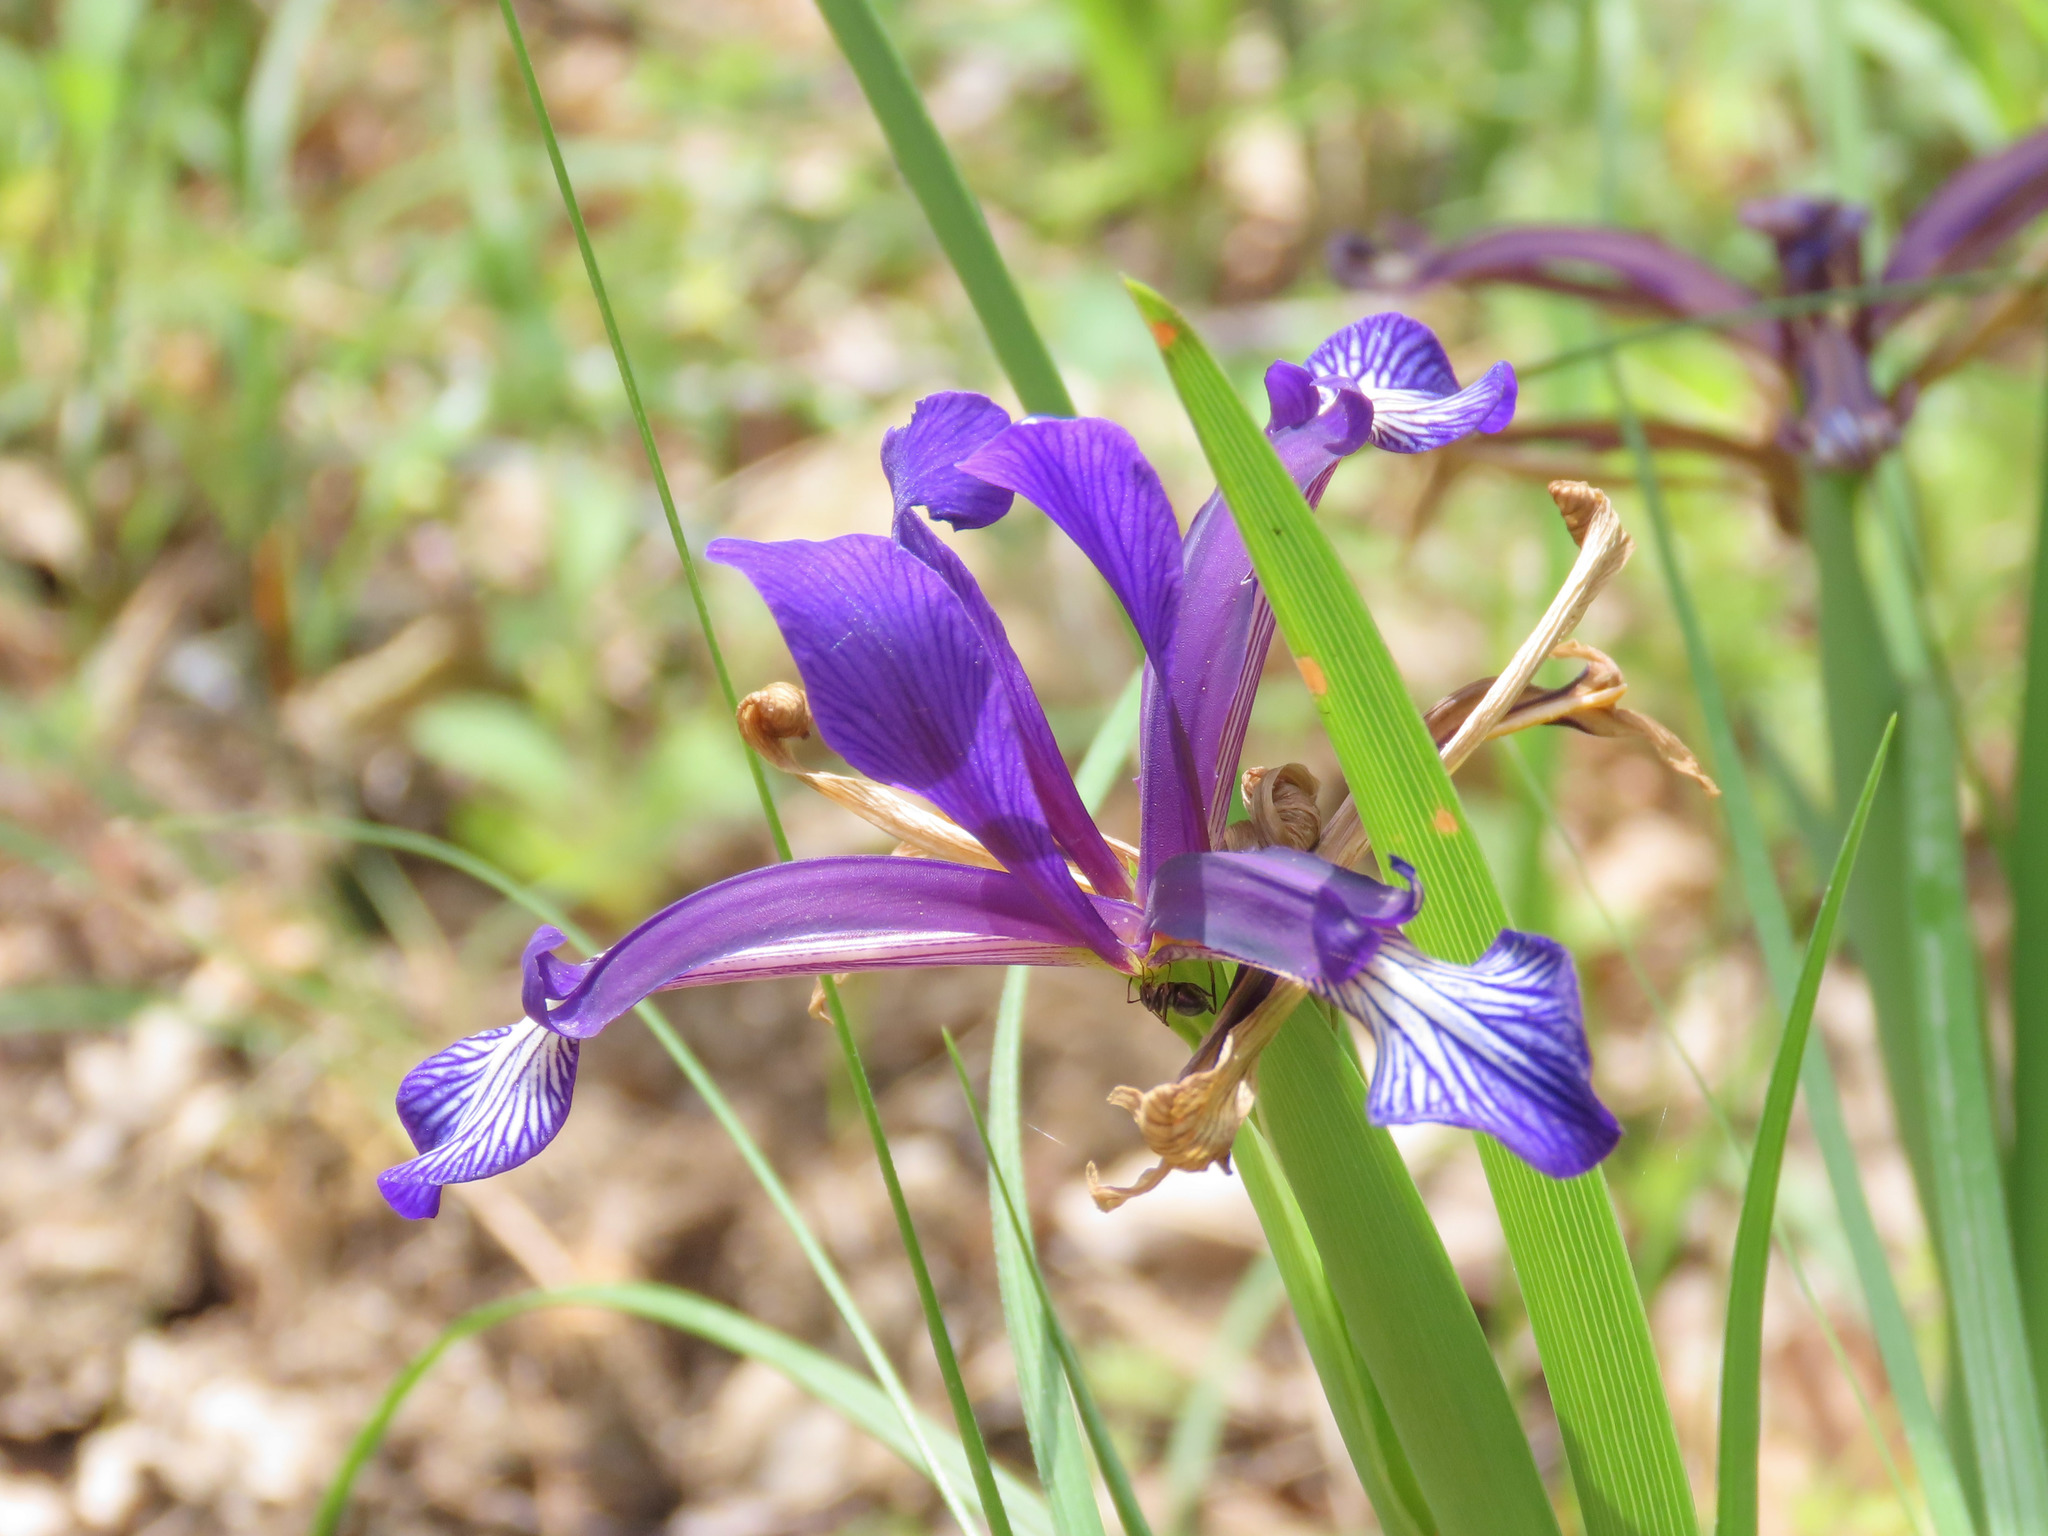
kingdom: Plantae
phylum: Tracheophyta
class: Liliopsida
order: Asparagales
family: Iridaceae
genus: Iris
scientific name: Iris sintenisii
